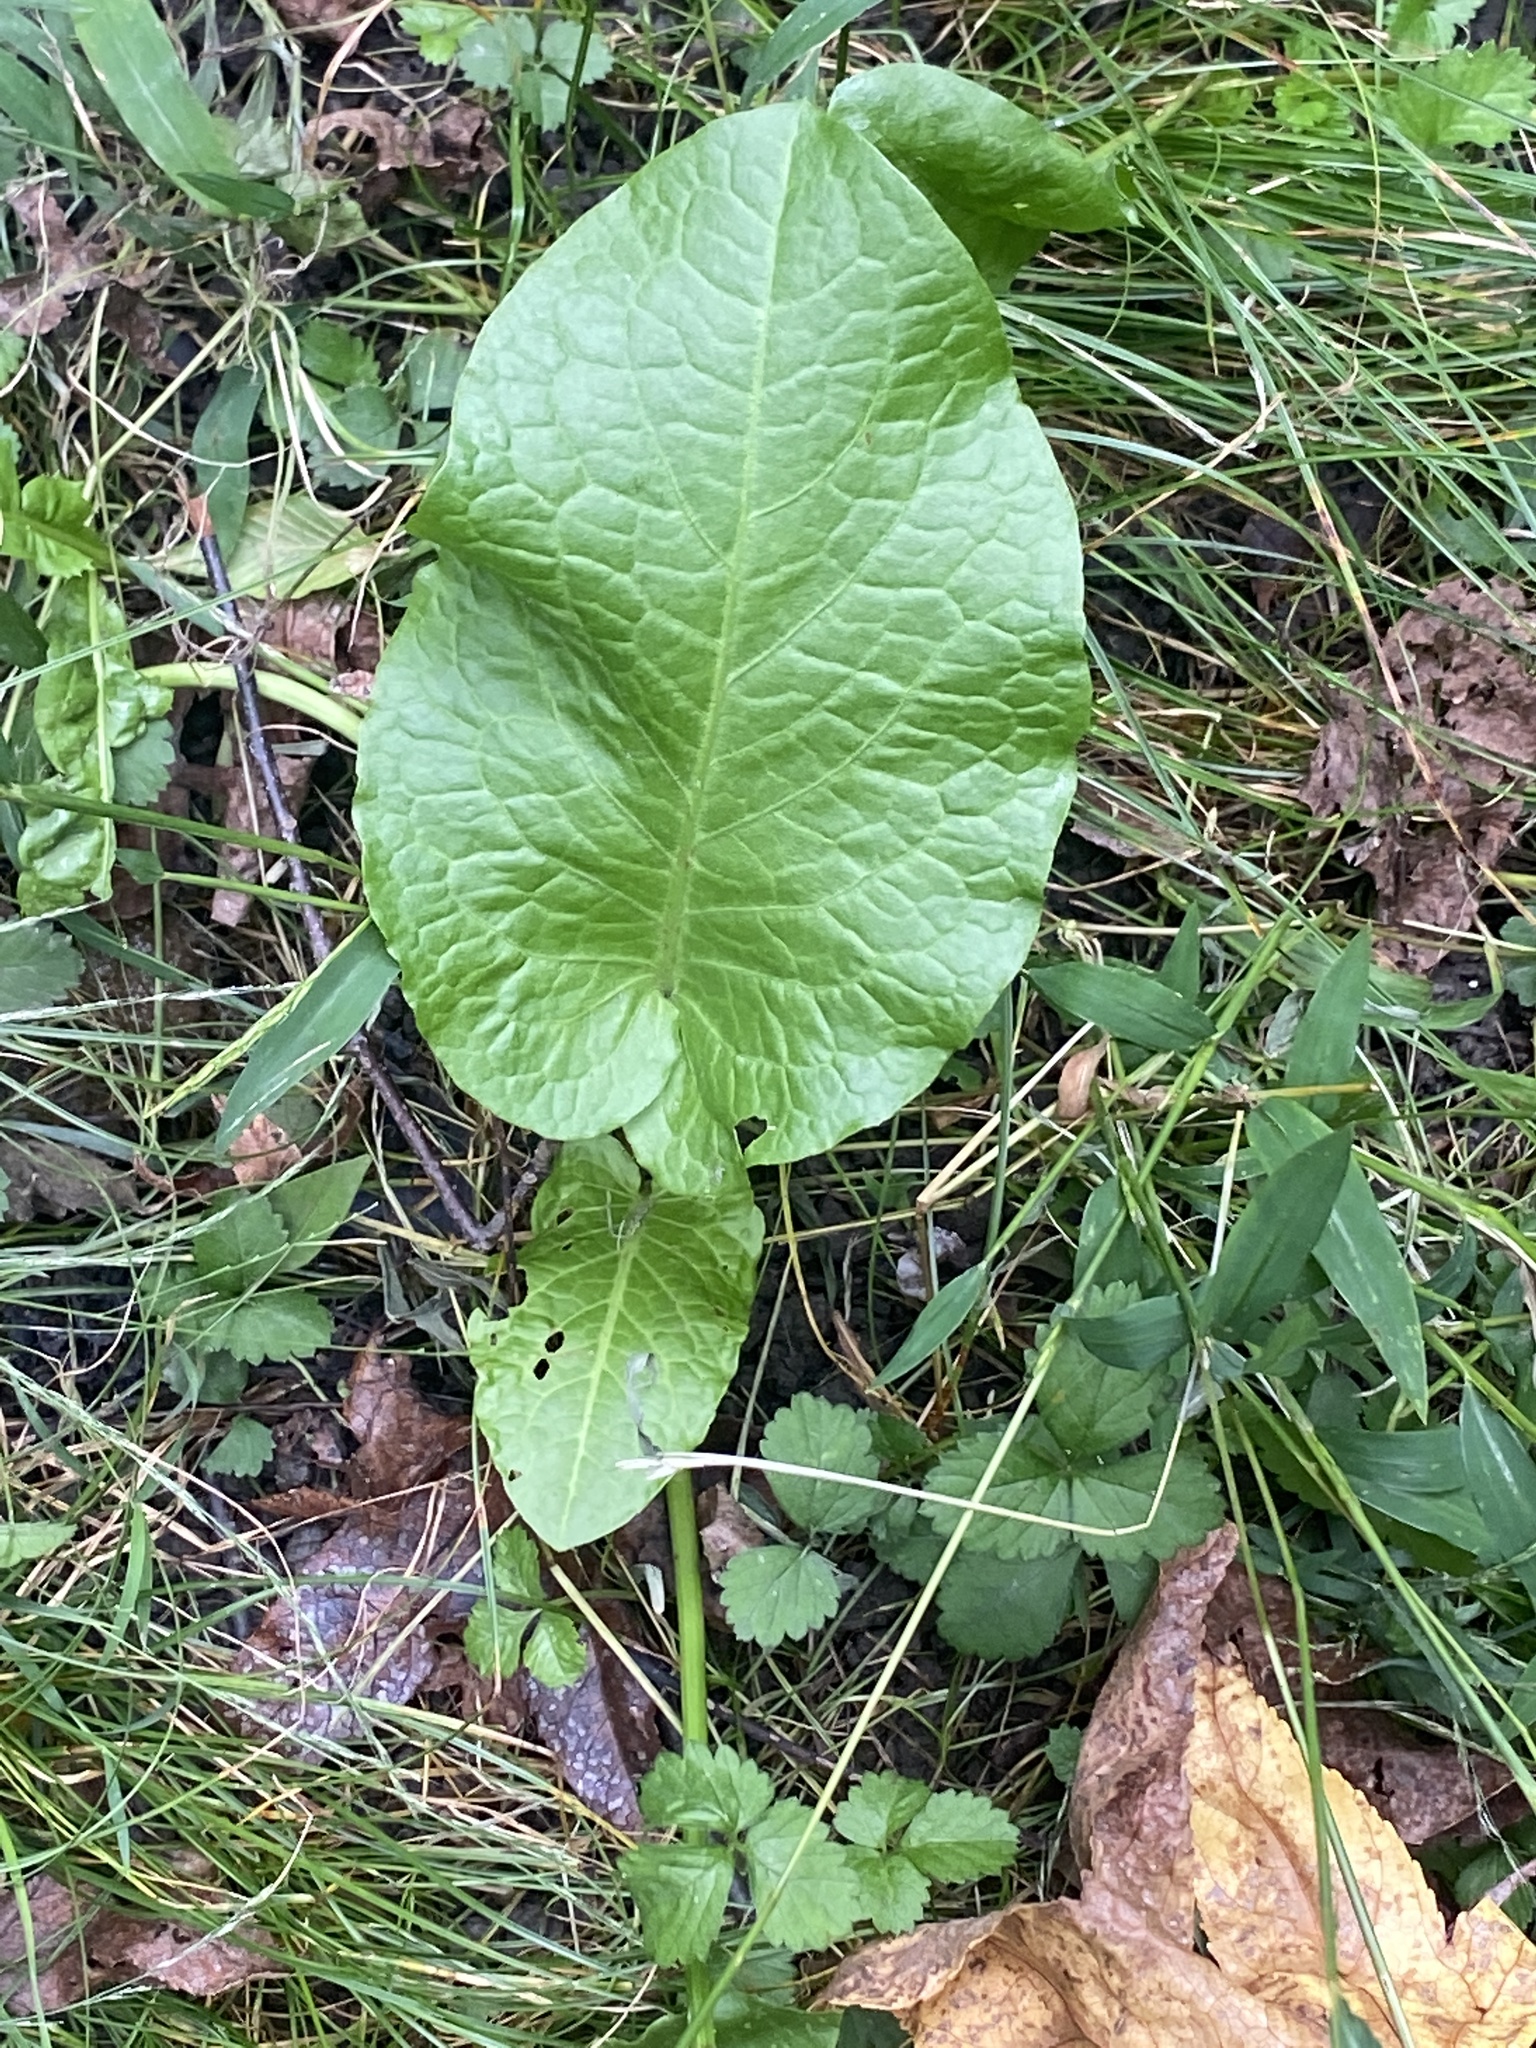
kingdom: Plantae
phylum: Tracheophyta
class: Magnoliopsida
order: Caryophyllales
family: Polygonaceae
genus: Rumex
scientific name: Rumex obtusifolius
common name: Bitter dock
